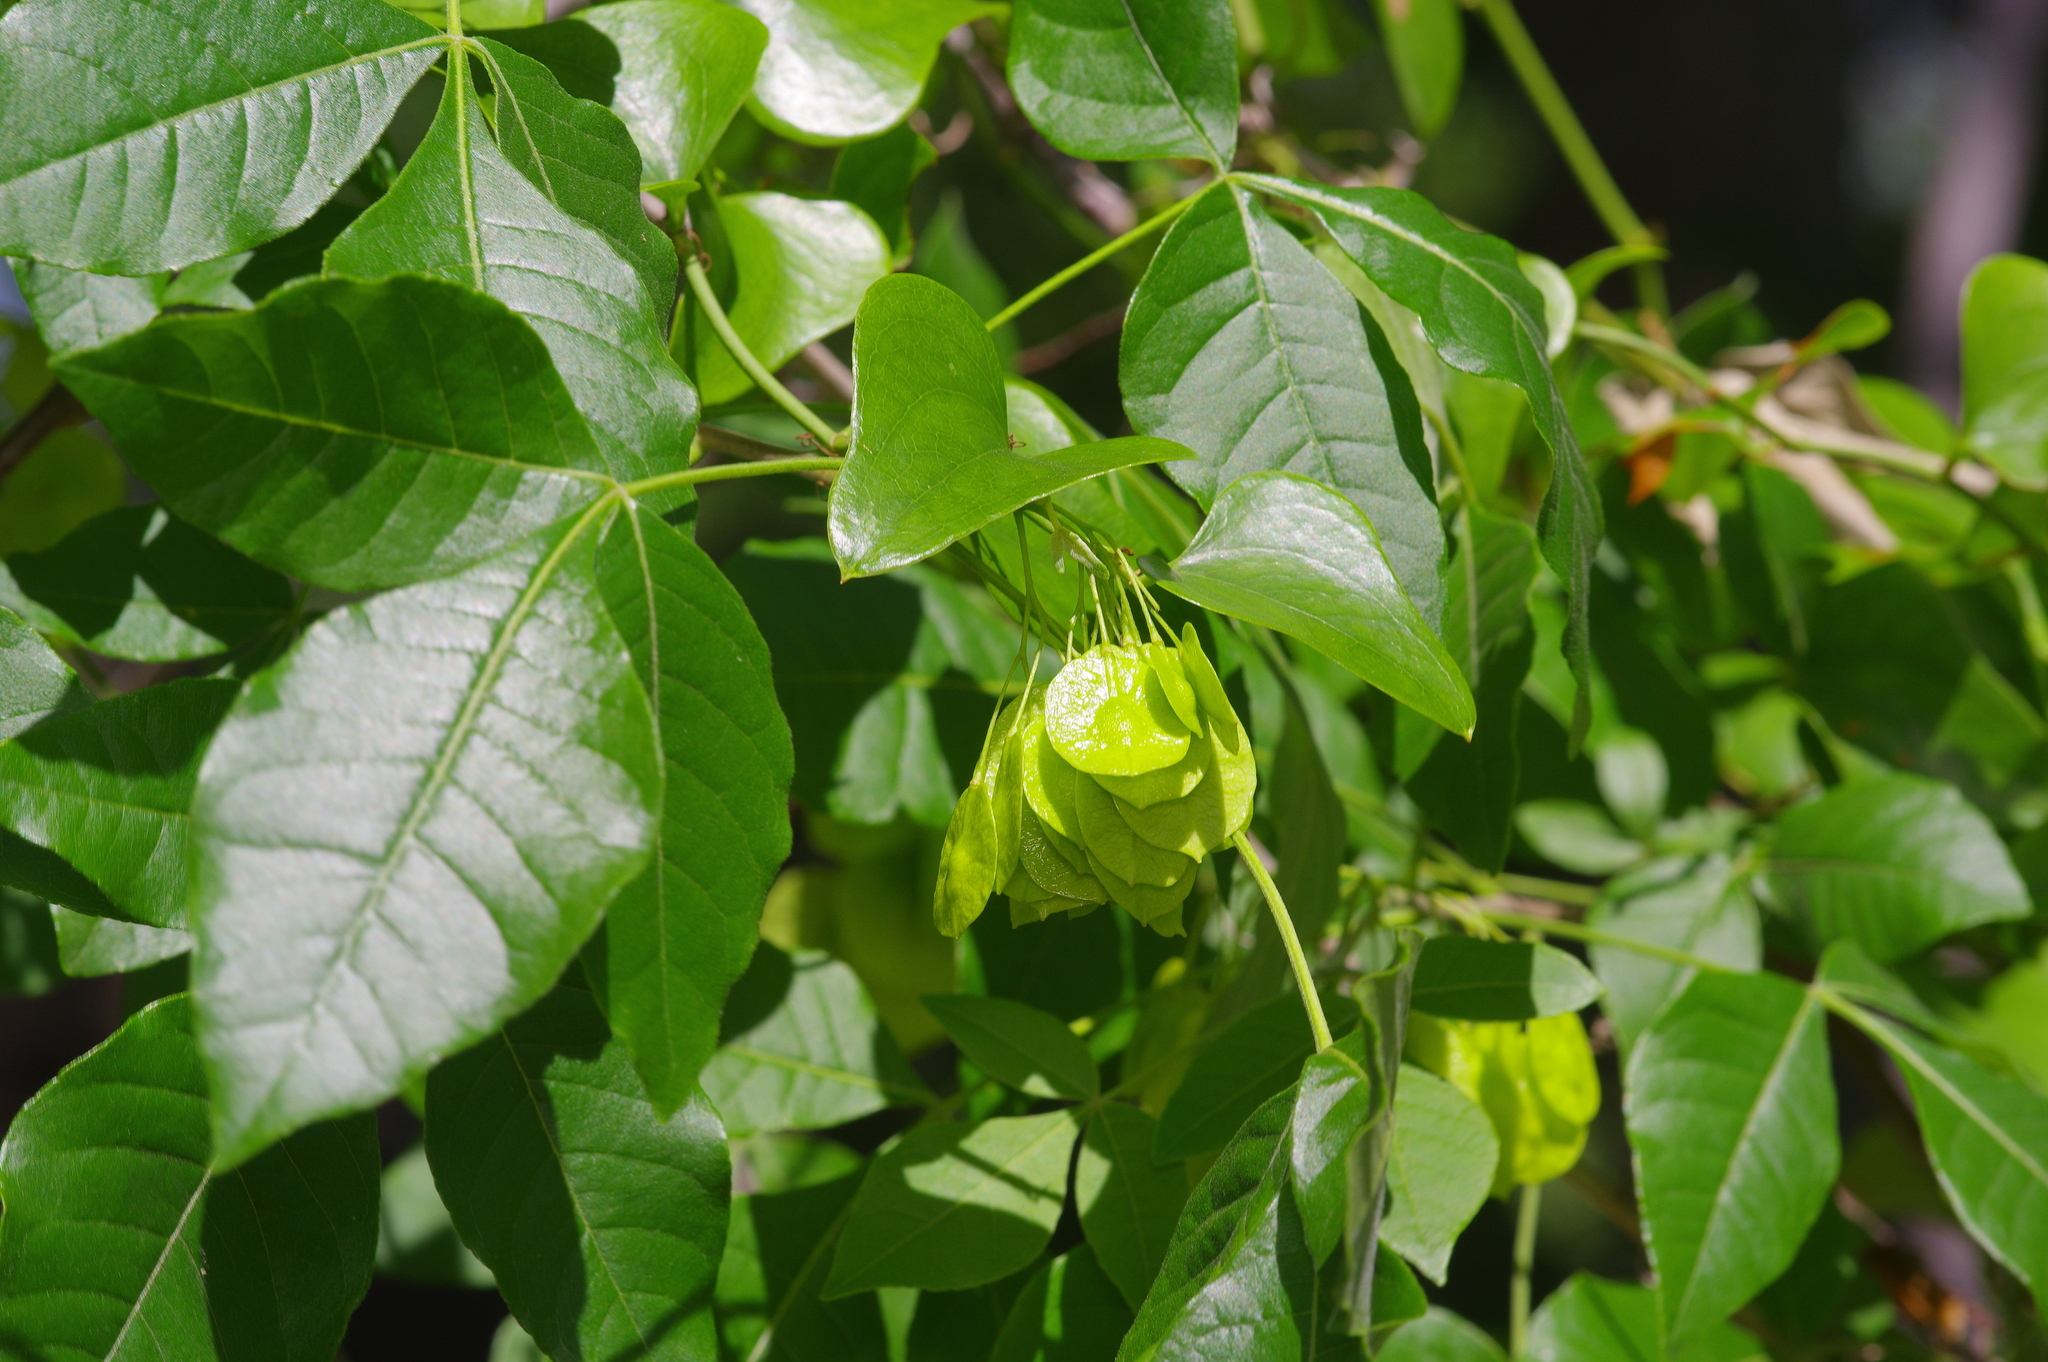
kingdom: Plantae
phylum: Tracheophyta
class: Magnoliopsida
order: Sapindales
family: Rutaceae
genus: Ptelea
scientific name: Ptelea trifoliata
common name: Common hop-tree
